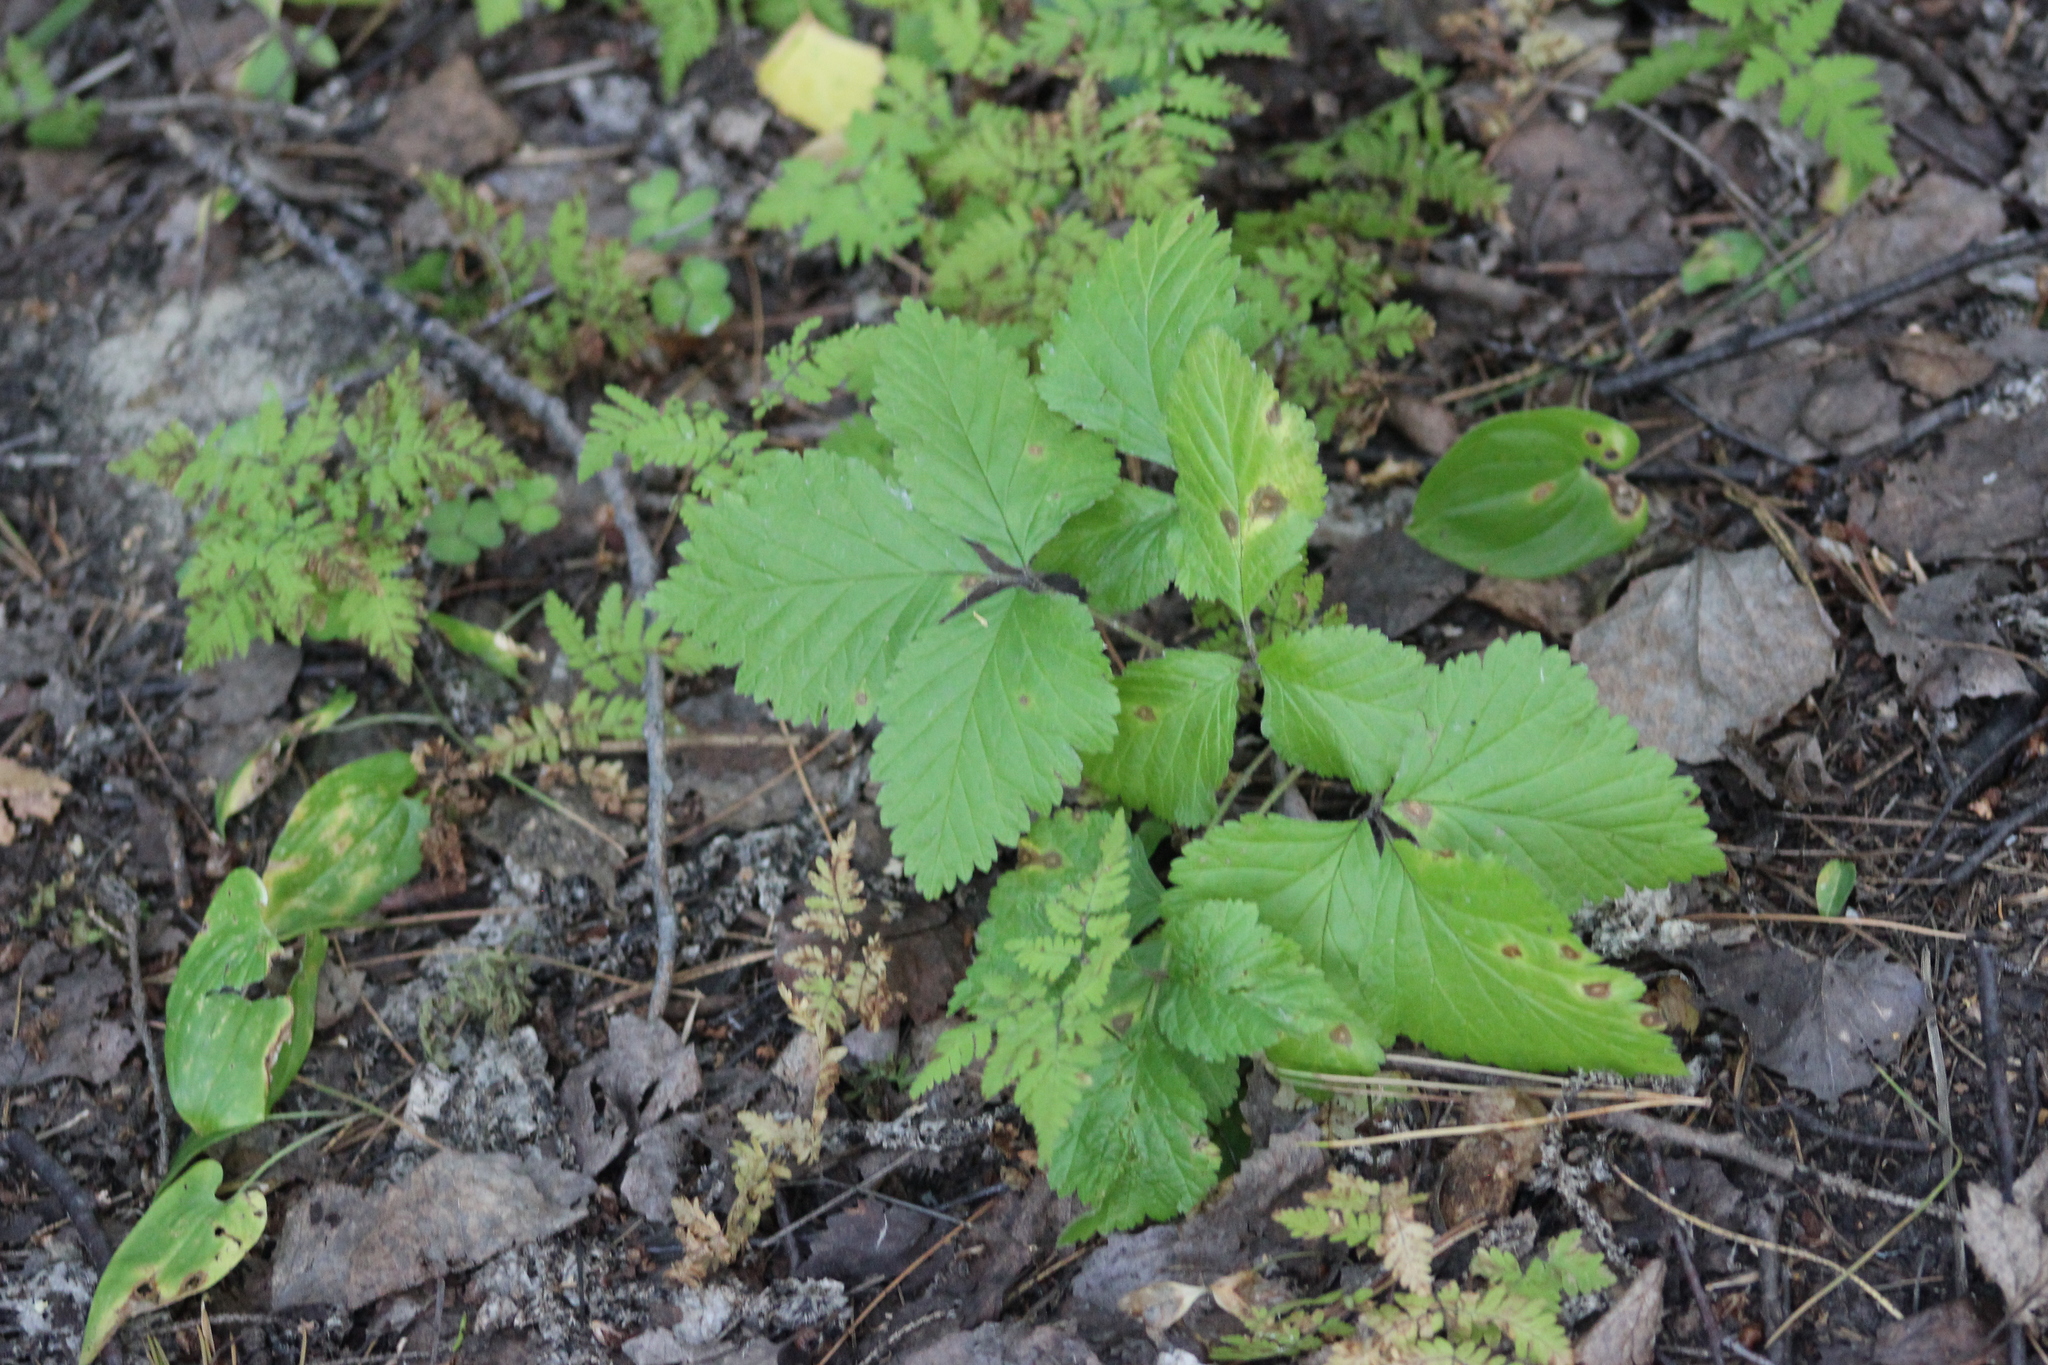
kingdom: Plantae
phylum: Tracheophyta
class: Magnoliopsida
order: Rosales
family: Rosaceae
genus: Rubus
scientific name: Rubus saxatilis
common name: Stone bramble
